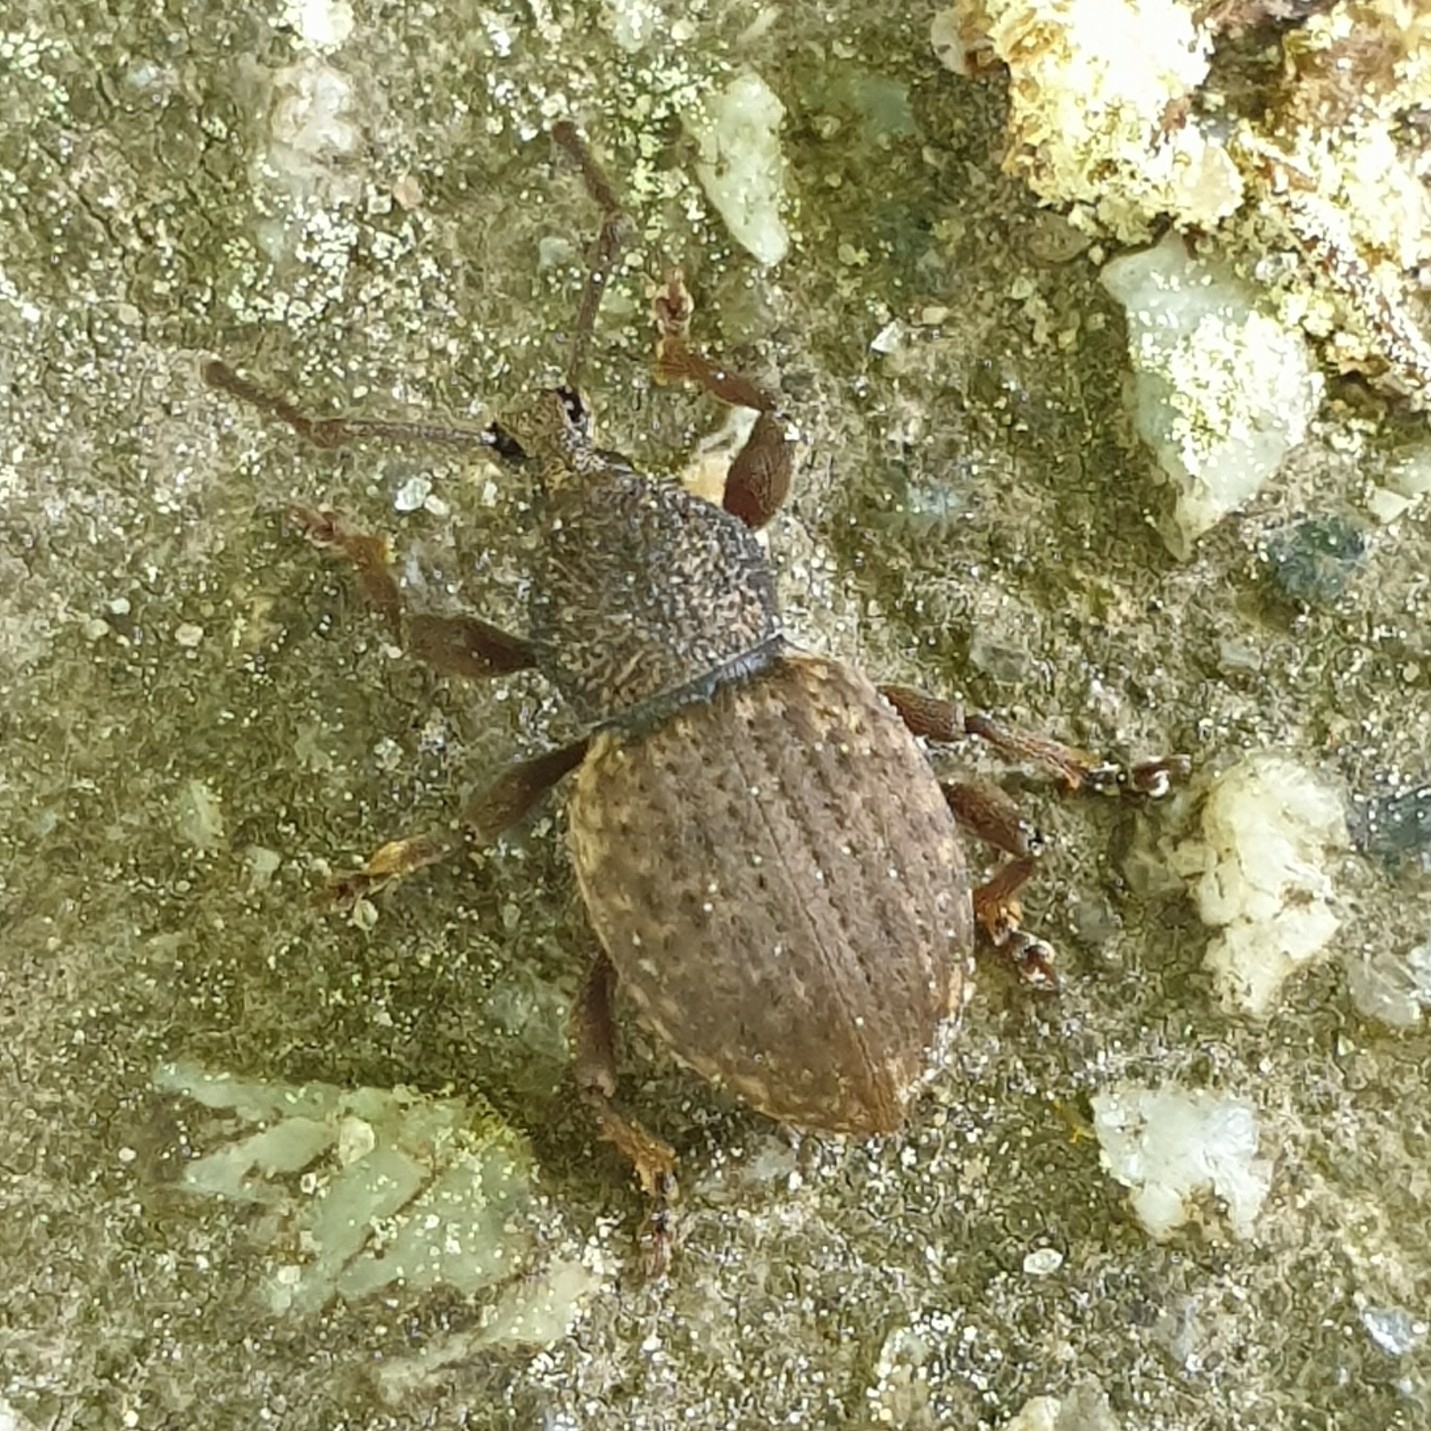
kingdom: Animalia
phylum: Arthropoda
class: Insecta
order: Coleoptera
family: Curculionidae
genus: Otiorhynchus
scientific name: Otiorhynchus raucus
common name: Weevil
